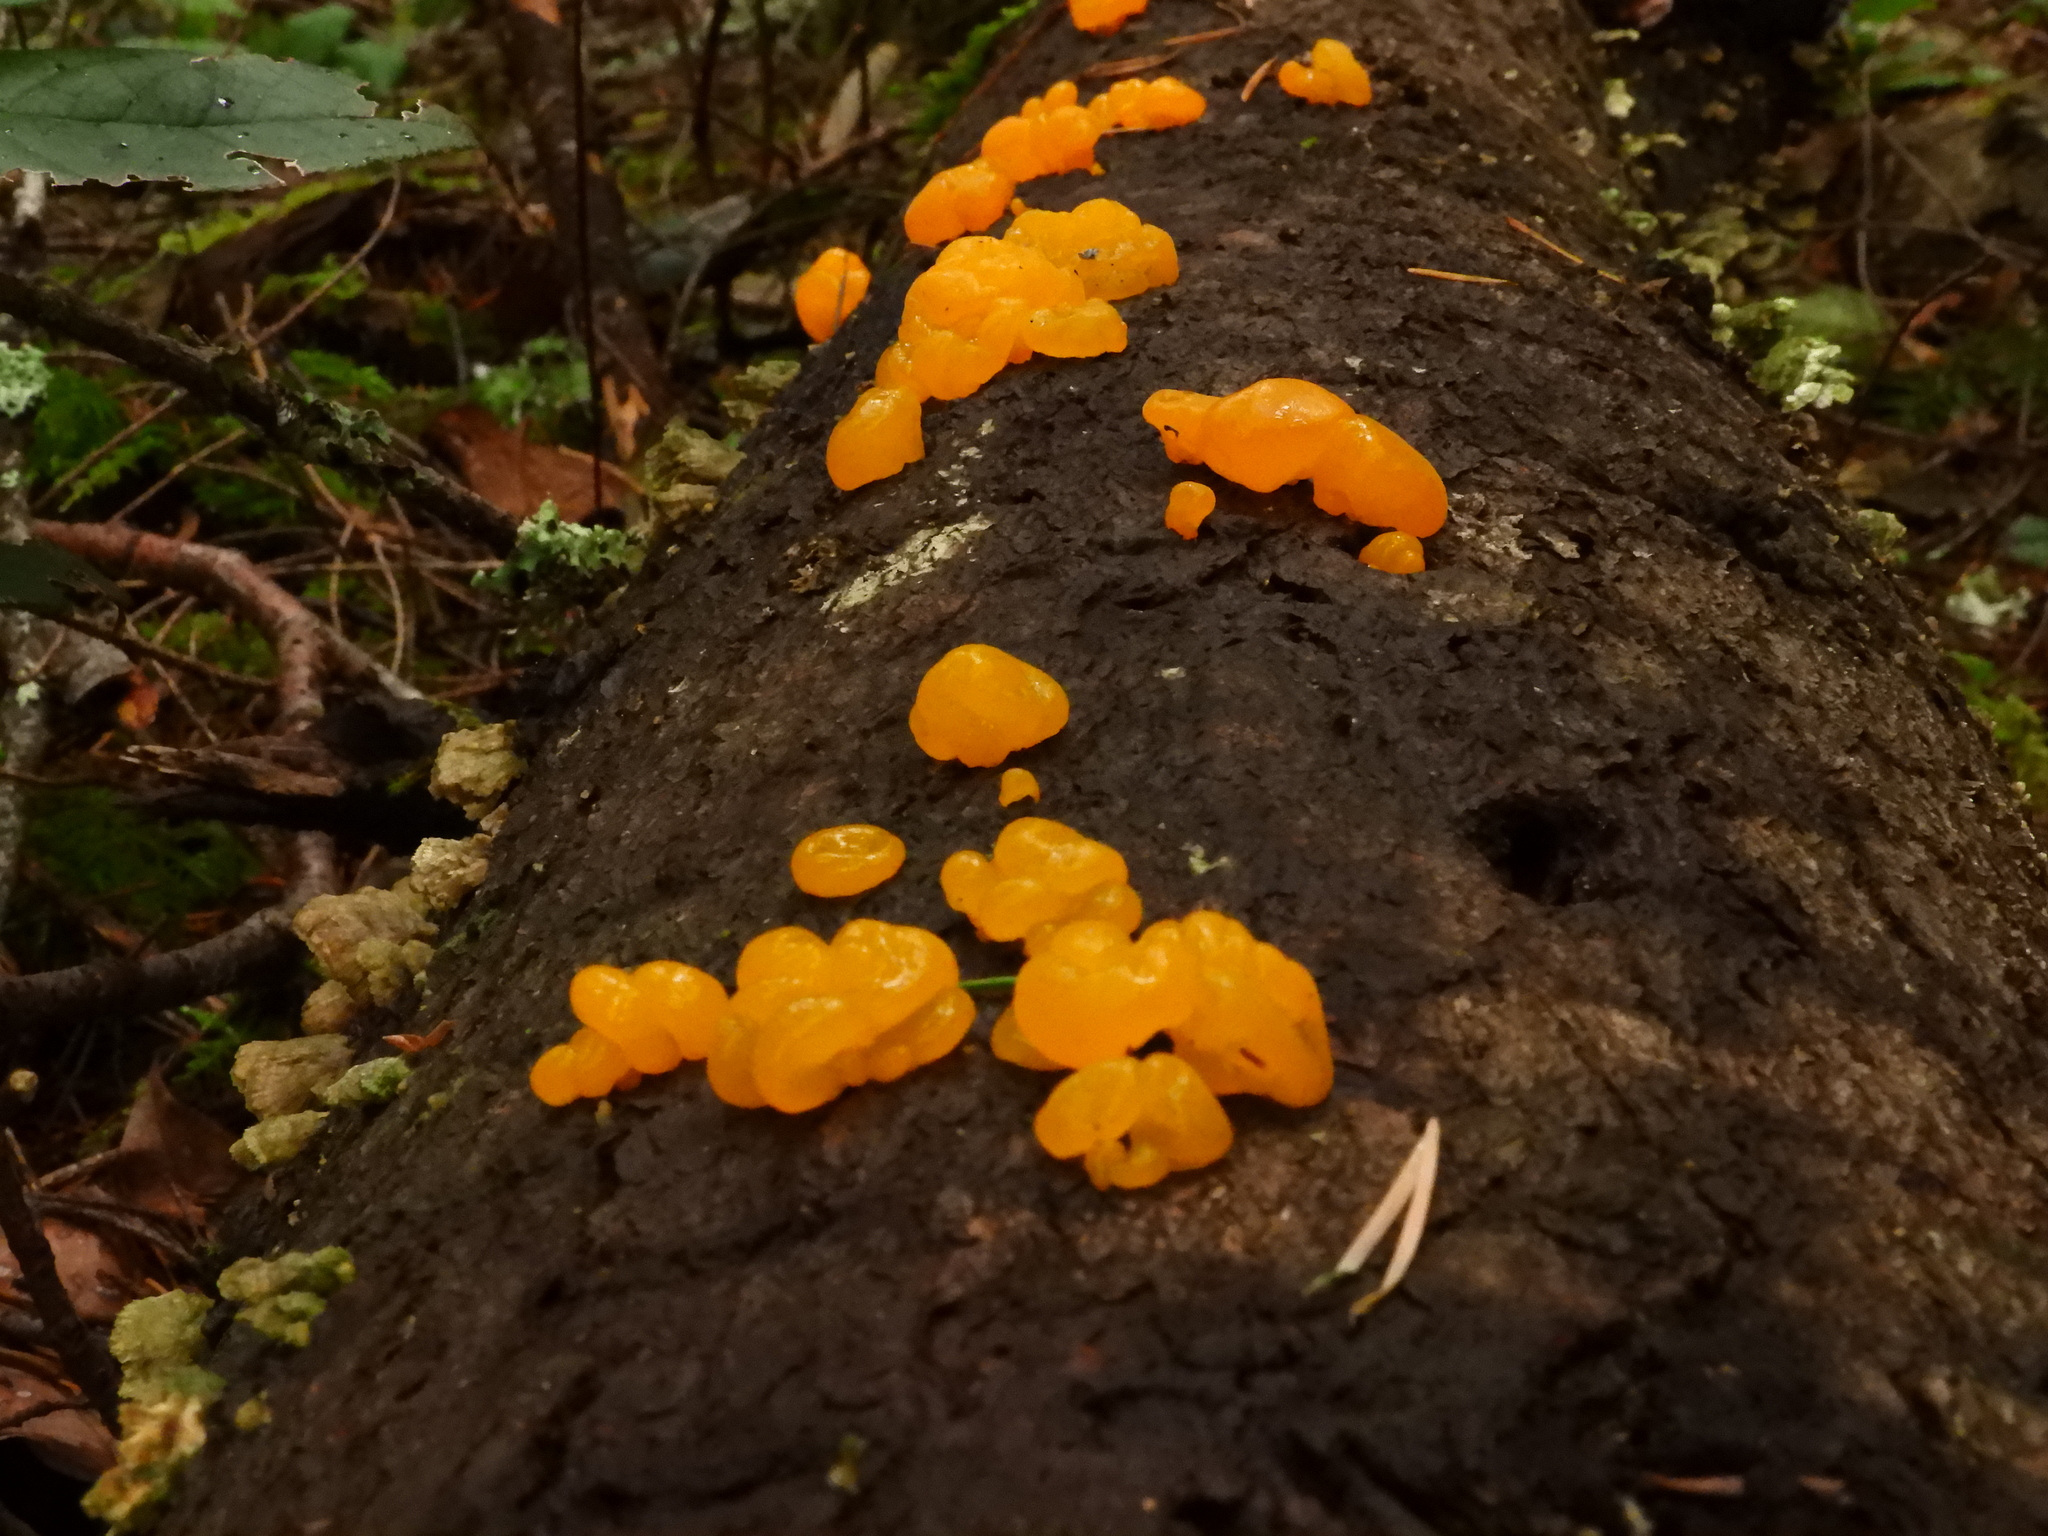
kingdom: Fungi
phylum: Basidiomycota
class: Dacrymycetes
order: Dacrymycetales
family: Dacrymycetaceae
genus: Dacrymyces
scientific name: Dacrymyces chrysospermus
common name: Orange jelly spot
